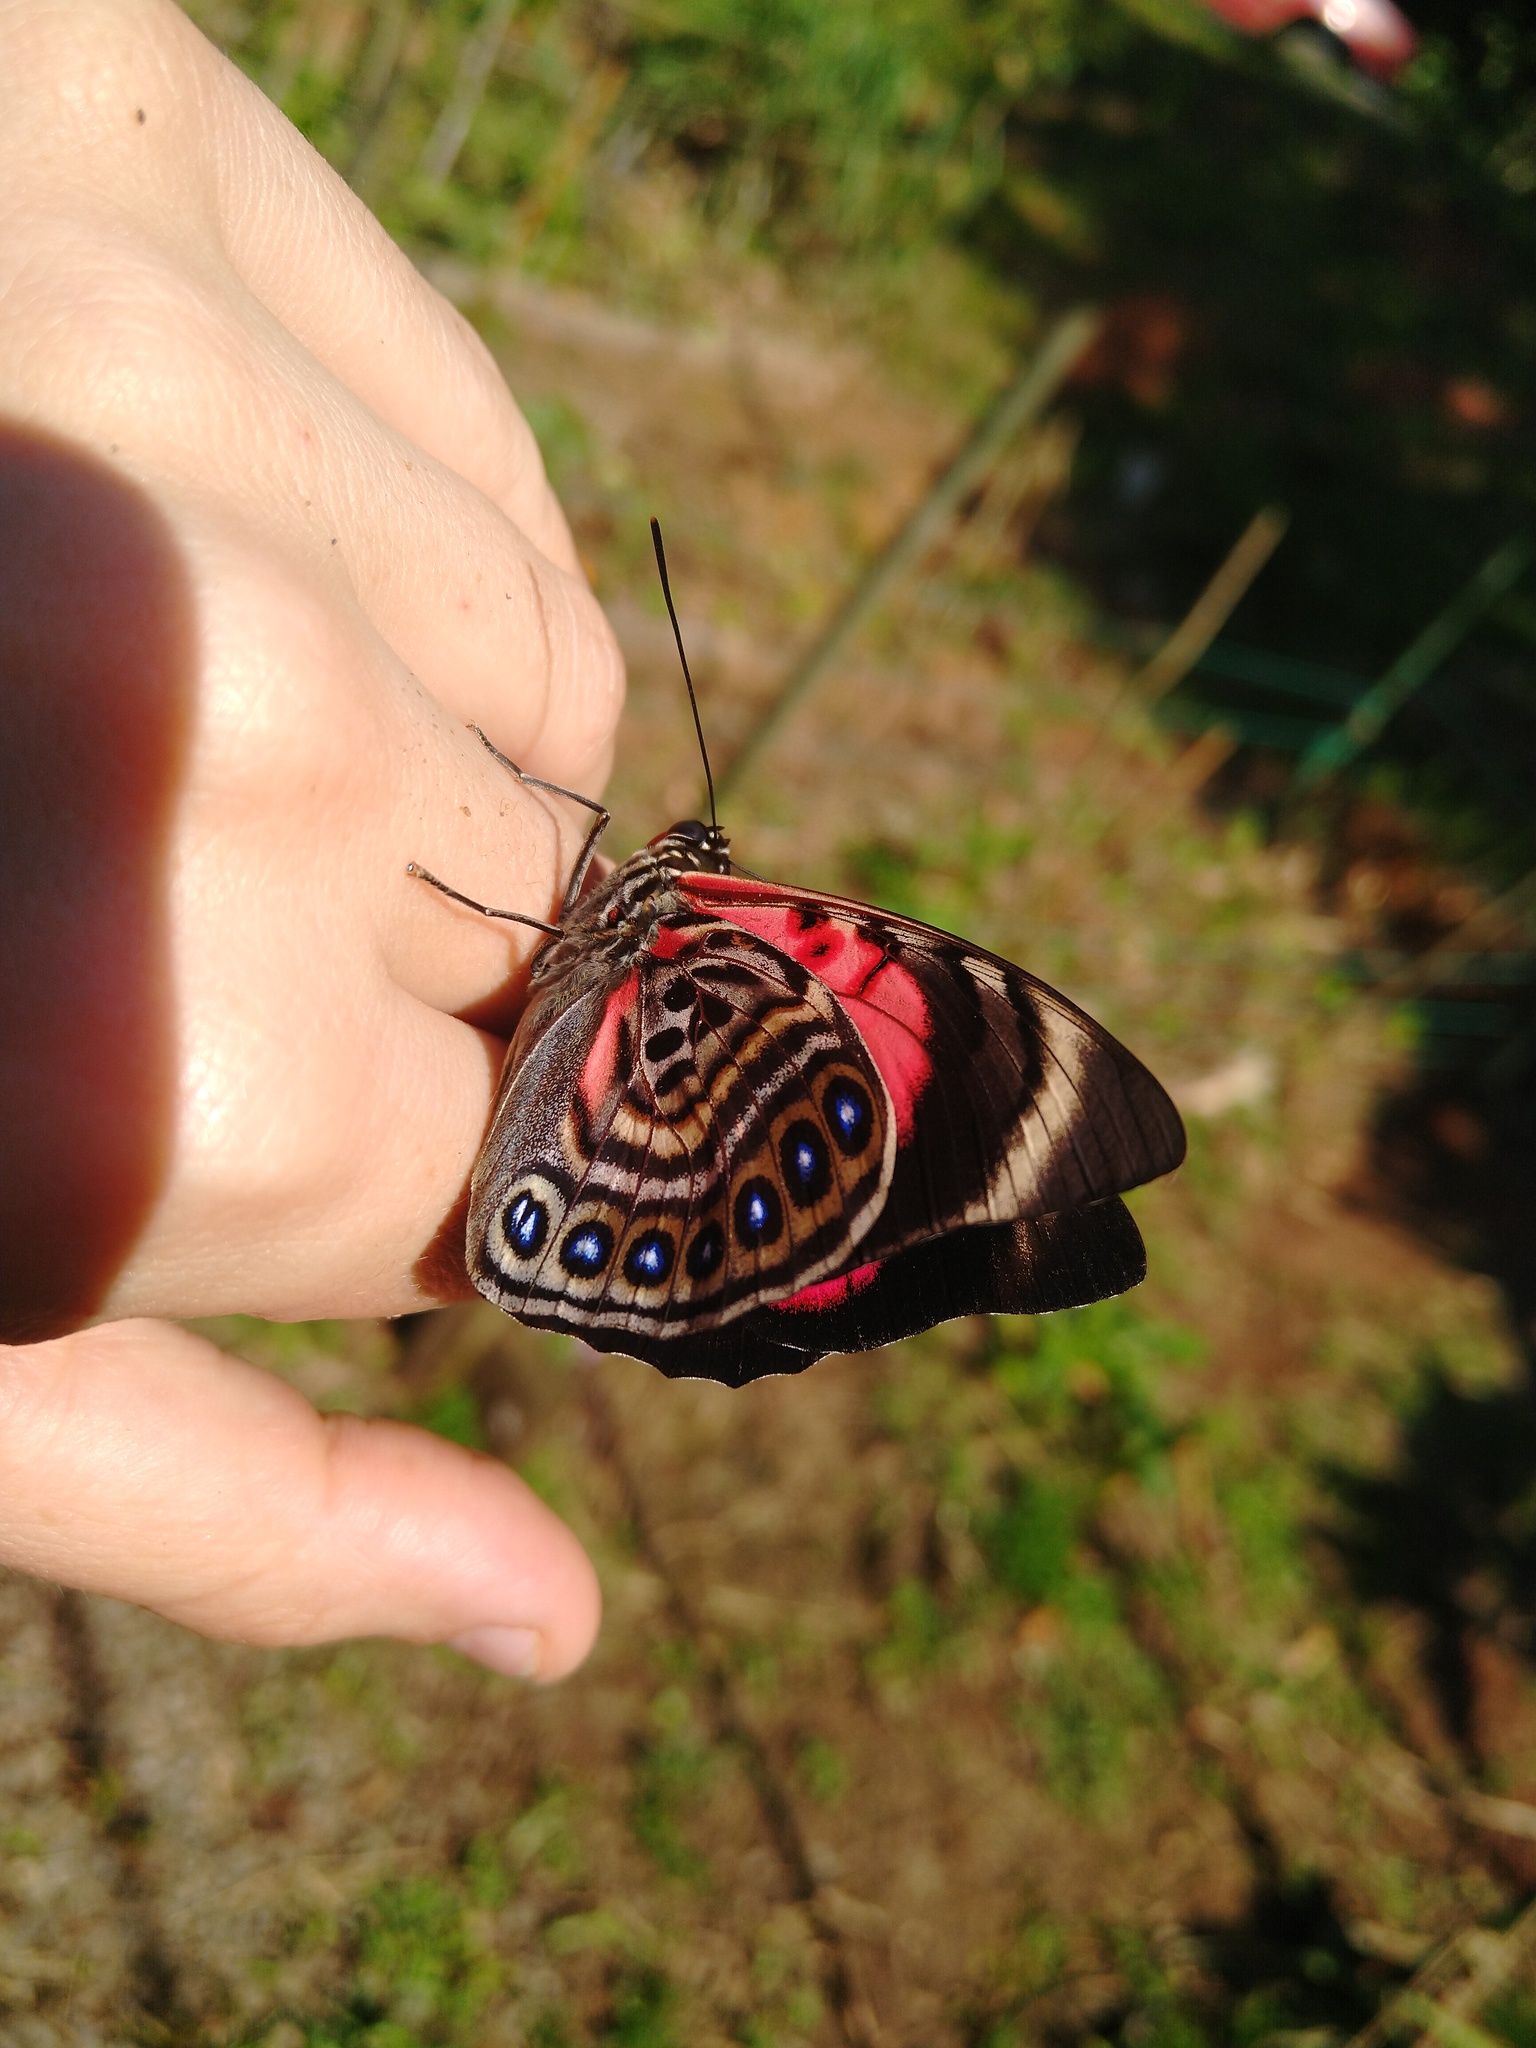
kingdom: Animalia
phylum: Arthropoda
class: Insecta
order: Lepidoptera
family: Nymphalidae
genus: Prepona
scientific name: Prepona claudina
